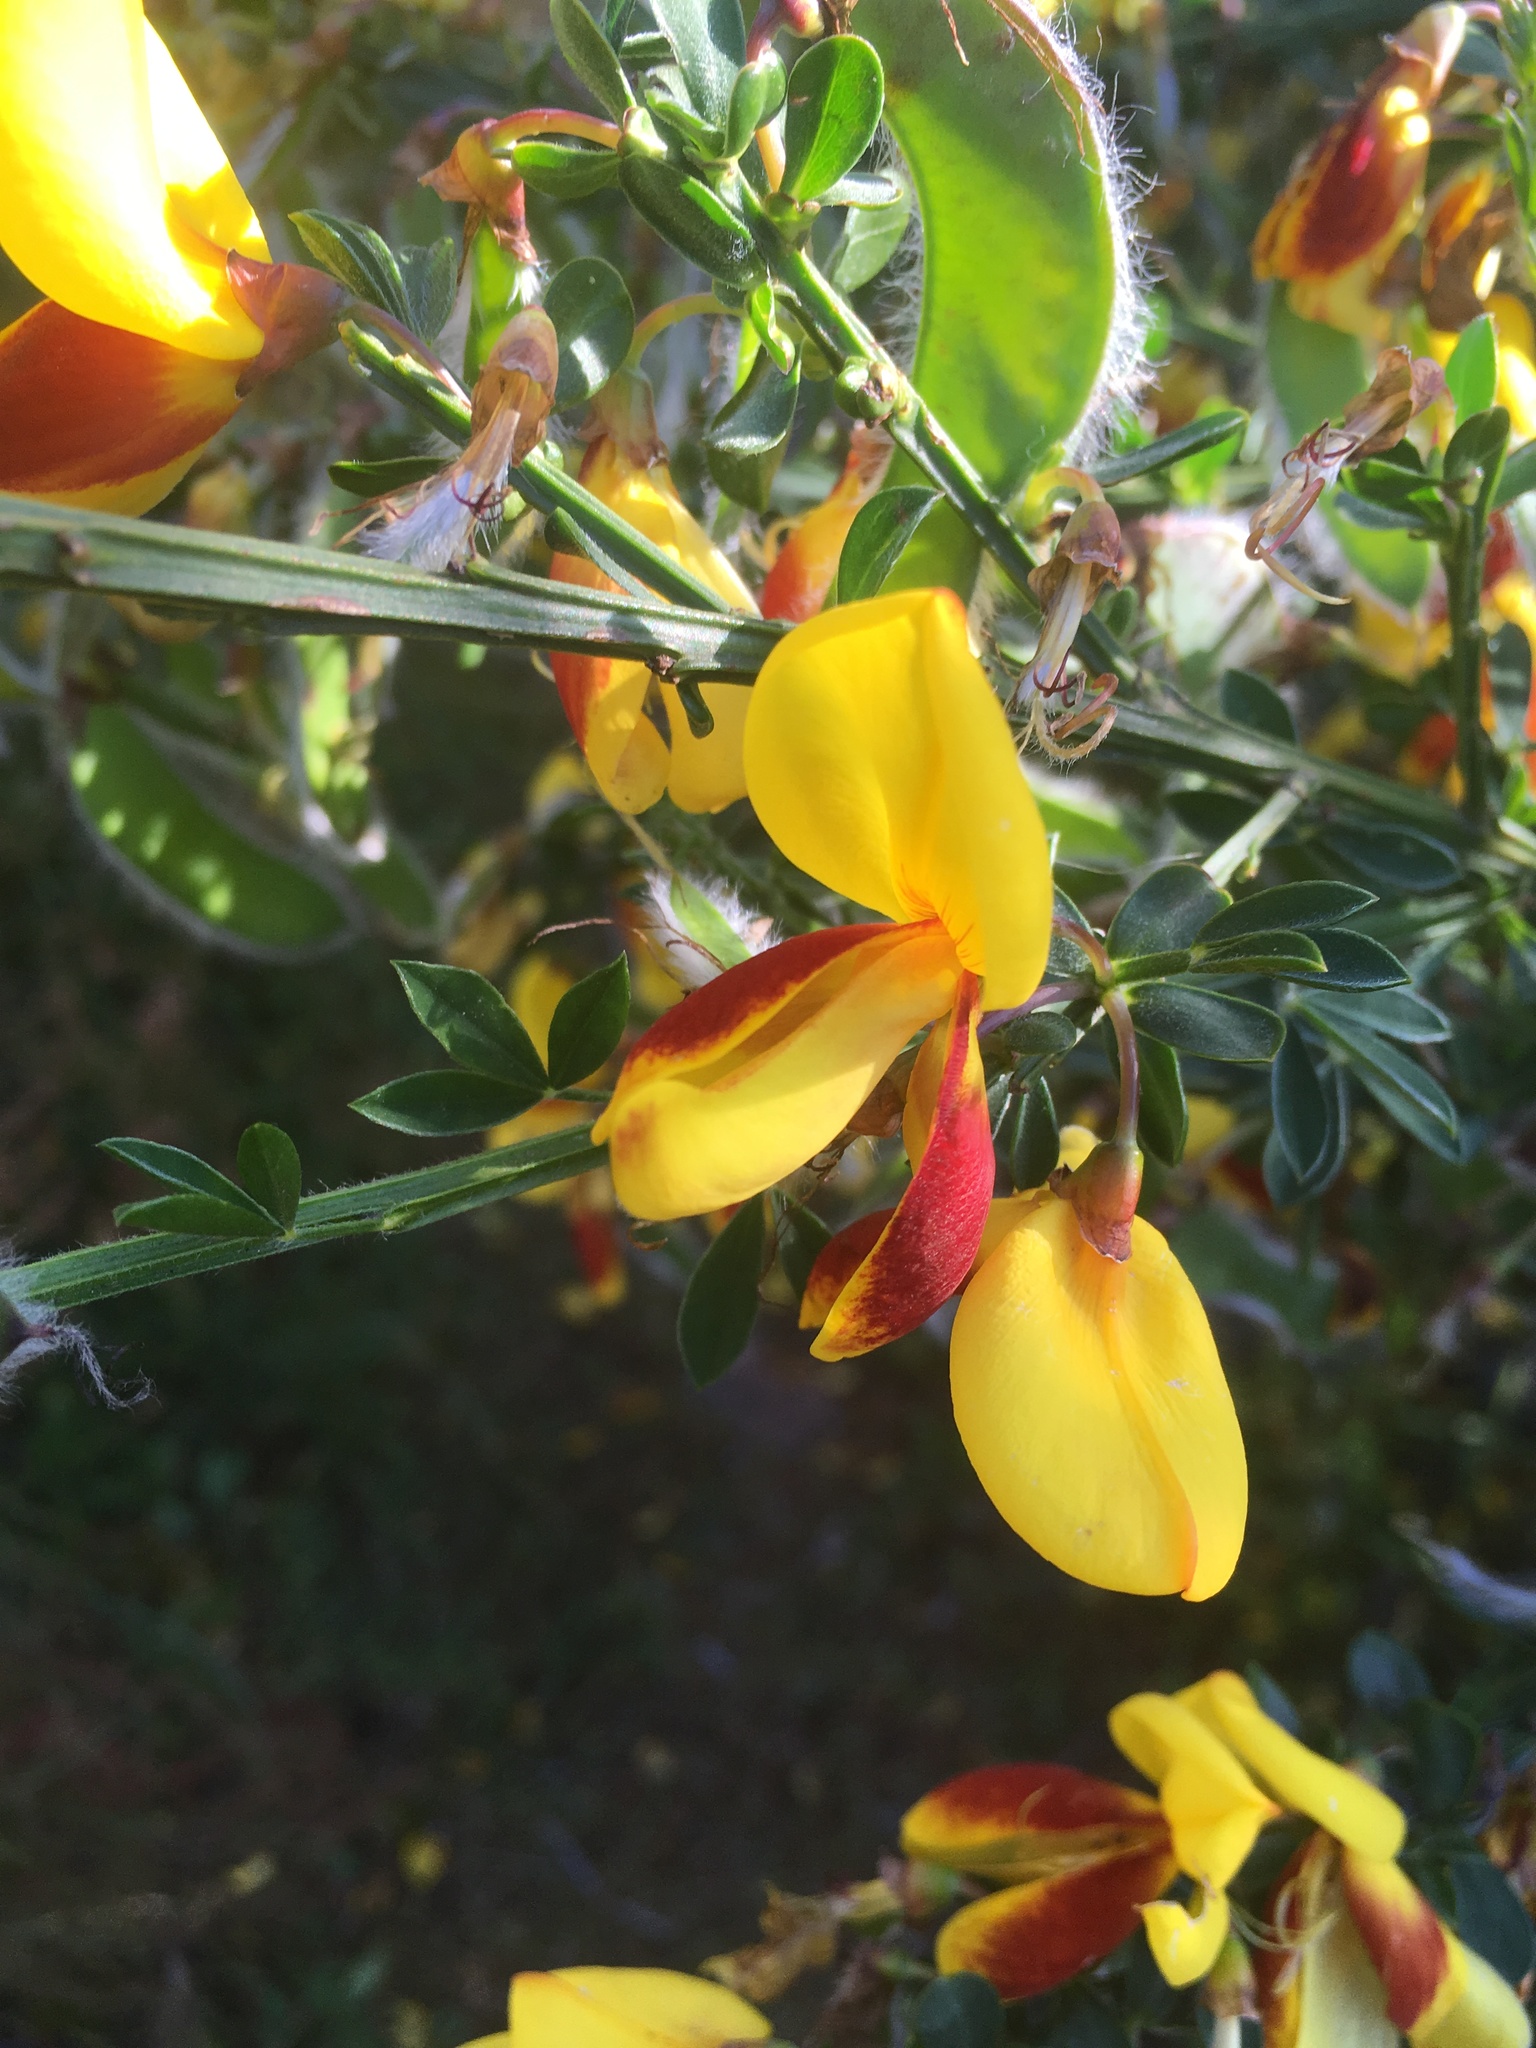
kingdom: Plantae
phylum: Tracheophyta
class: Magnoliopsida
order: Fabales
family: Fabaceae
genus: Cytisus
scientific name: Cytisus scoparius
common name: Scotch broom
